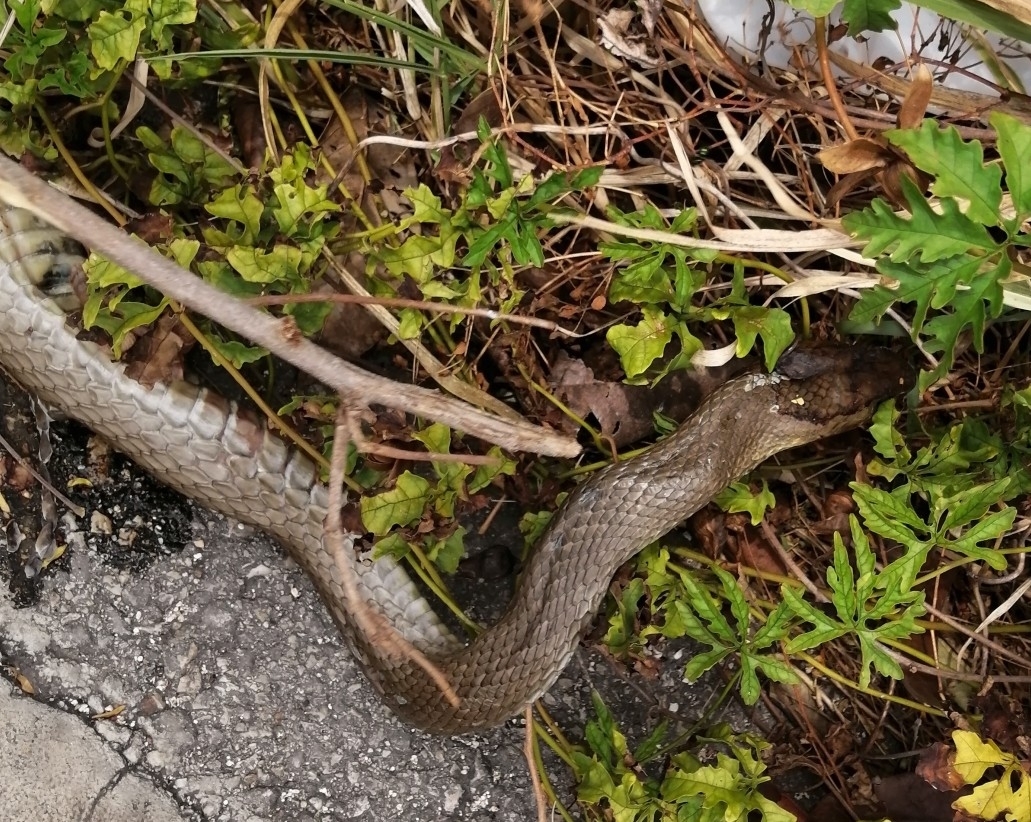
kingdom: Animalia
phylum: Chordata
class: Squamata
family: Colubridae
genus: Masticophis
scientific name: Masticophis mentovarius
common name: Neotropical whip snake
